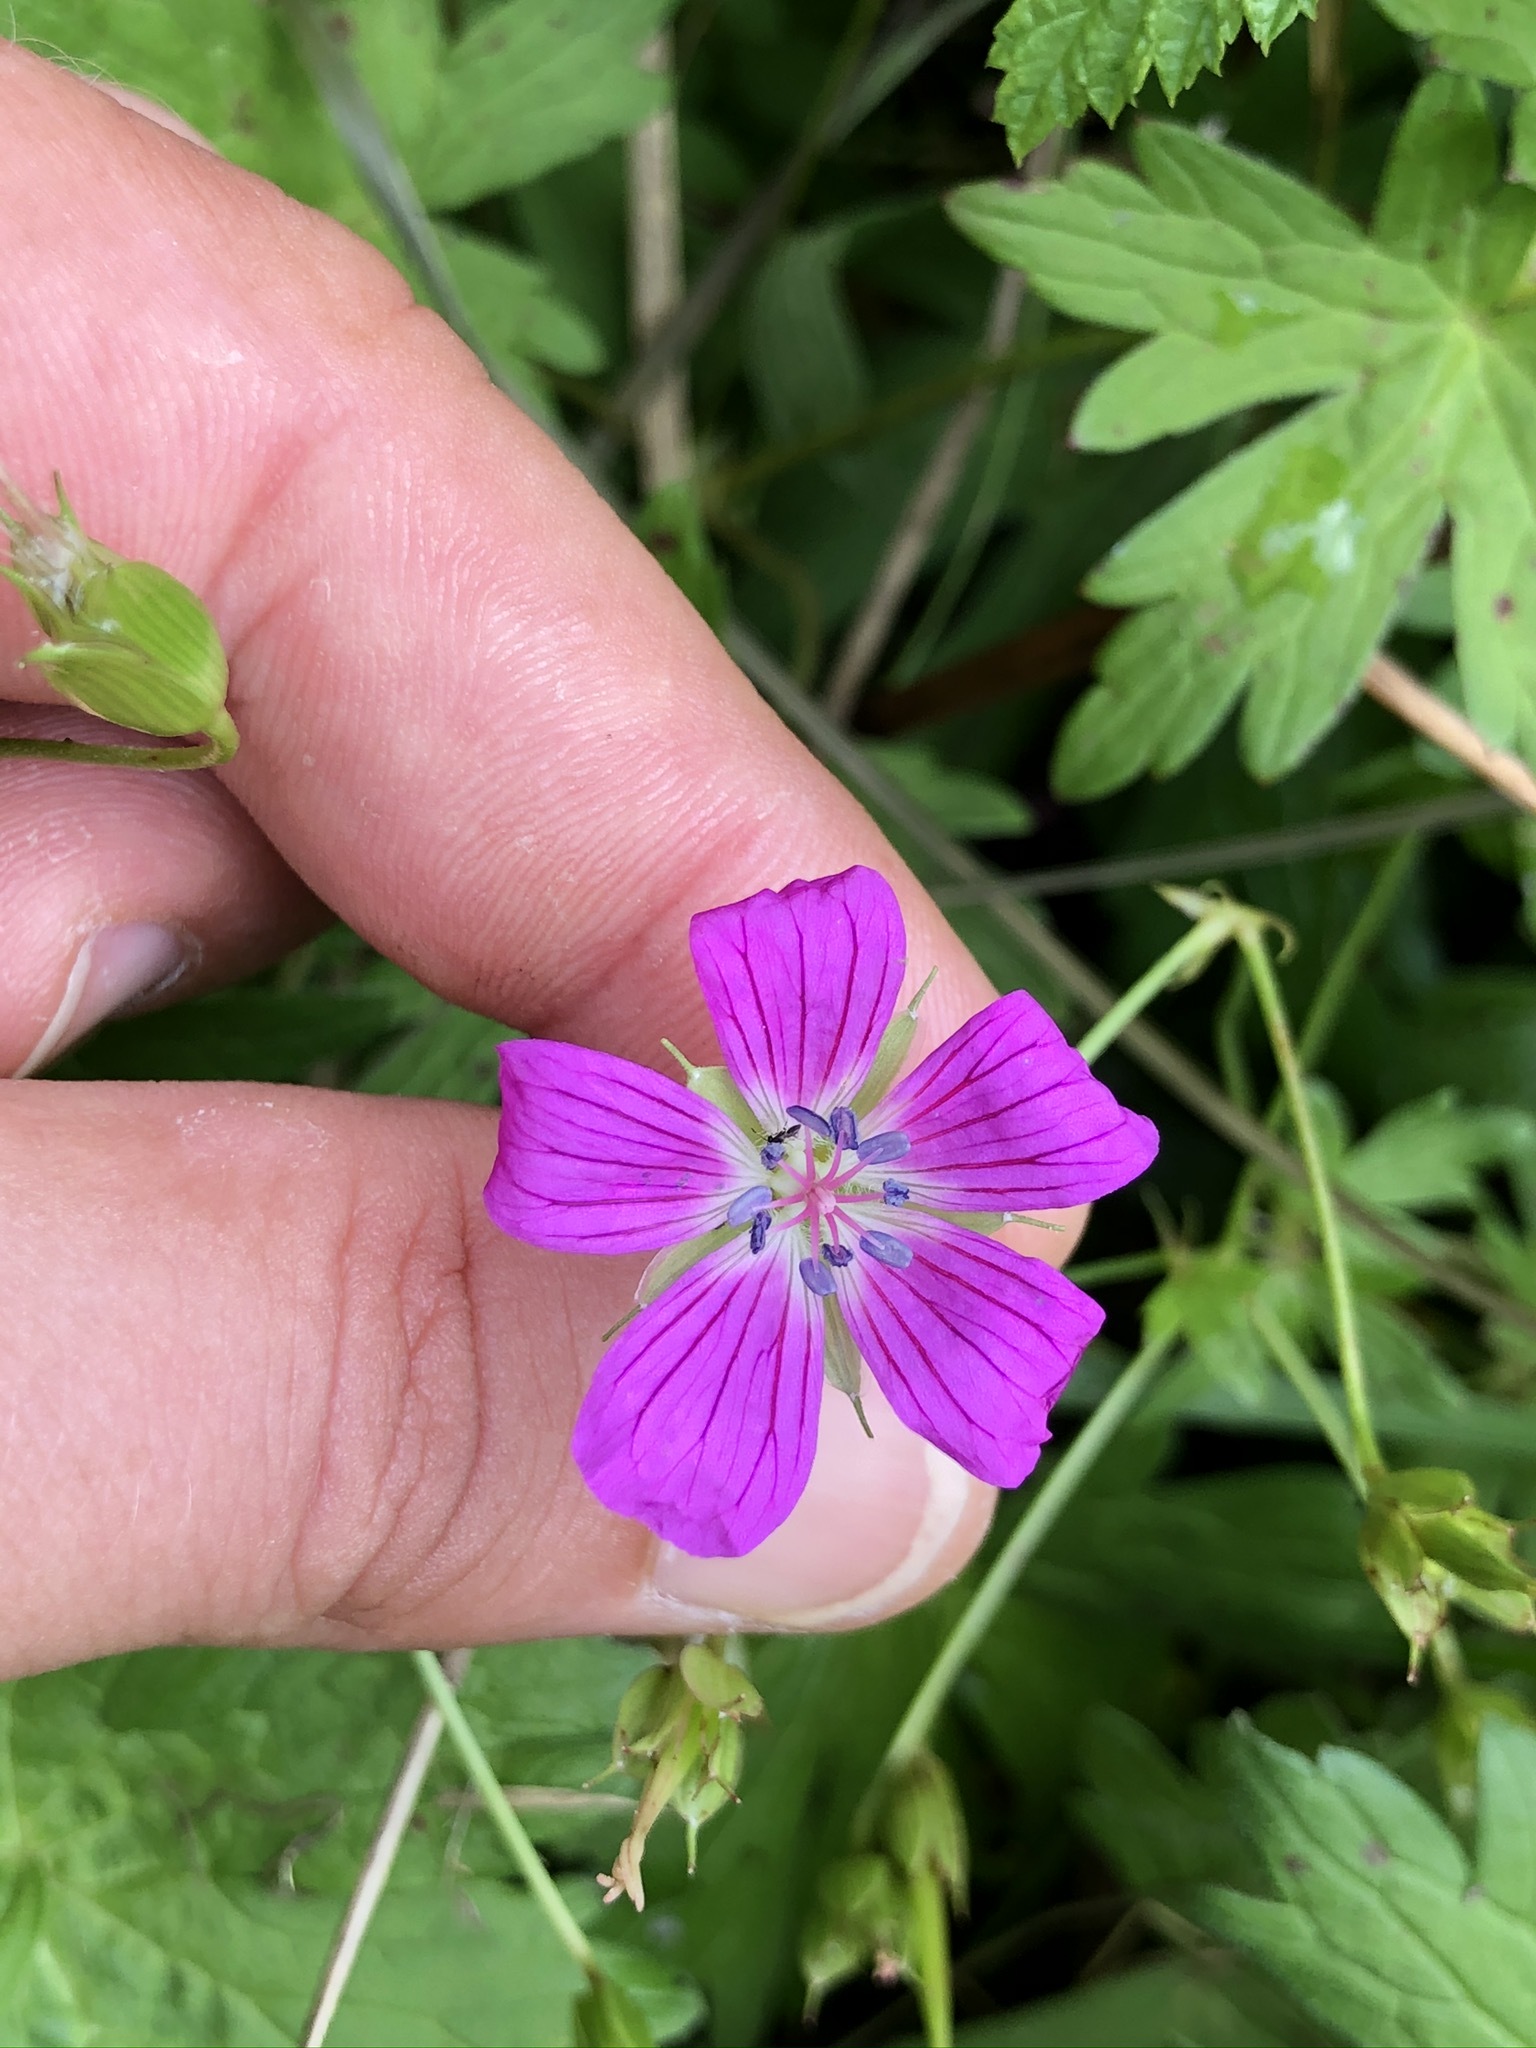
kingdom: Plantae
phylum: Tracheophyta
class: Magnoliopsida
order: Geraniales
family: Geraniaceae
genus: Geranium
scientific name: Geranium palustre
